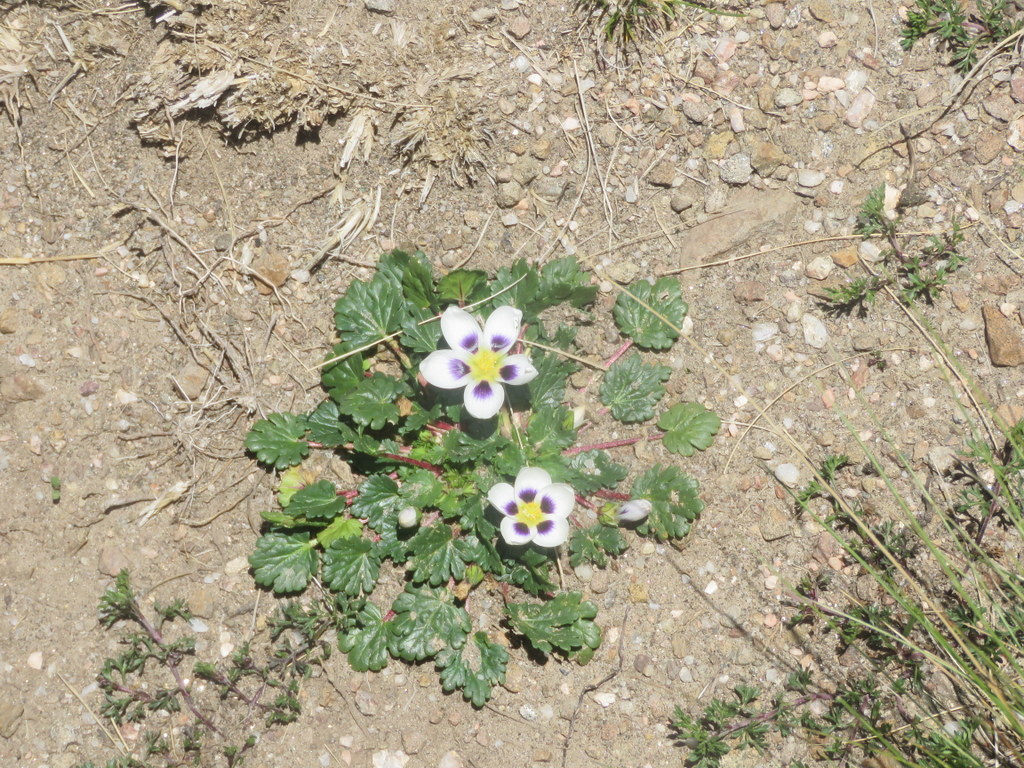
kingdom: Plantae
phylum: Tracheophyta
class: Magnoliopsida
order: Malvales
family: Malvaceae
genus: Acaulimalva
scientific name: Acaulimalva nubigena
